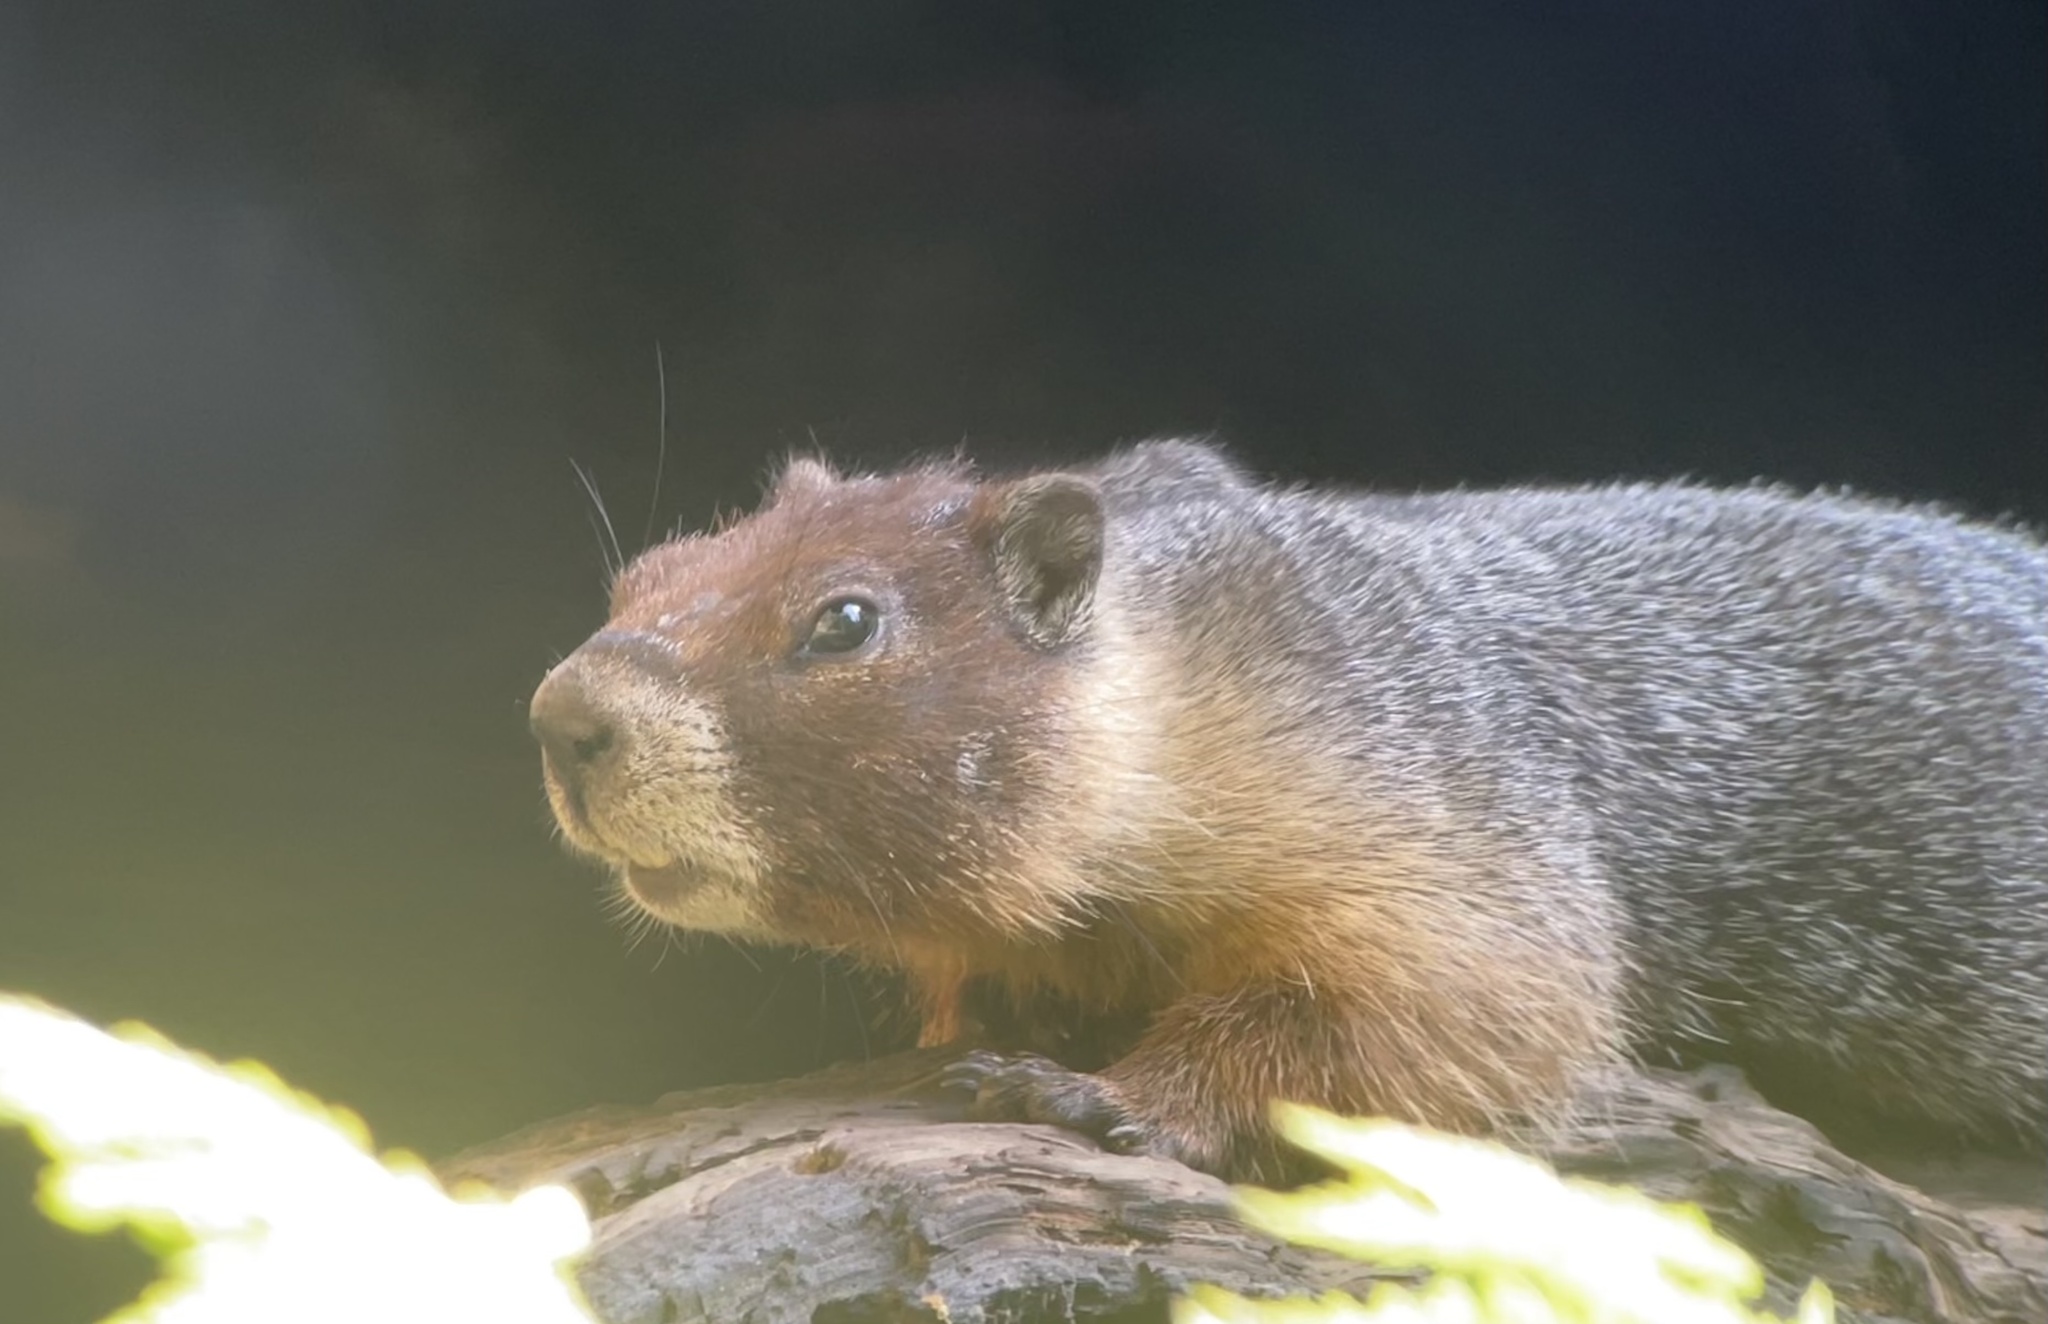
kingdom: Animalia
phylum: Chordata
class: Mammalia
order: Rodentia
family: Sciuridae
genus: Marmota
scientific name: Marmota flaviventris
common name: Yellow-bellied marmot
